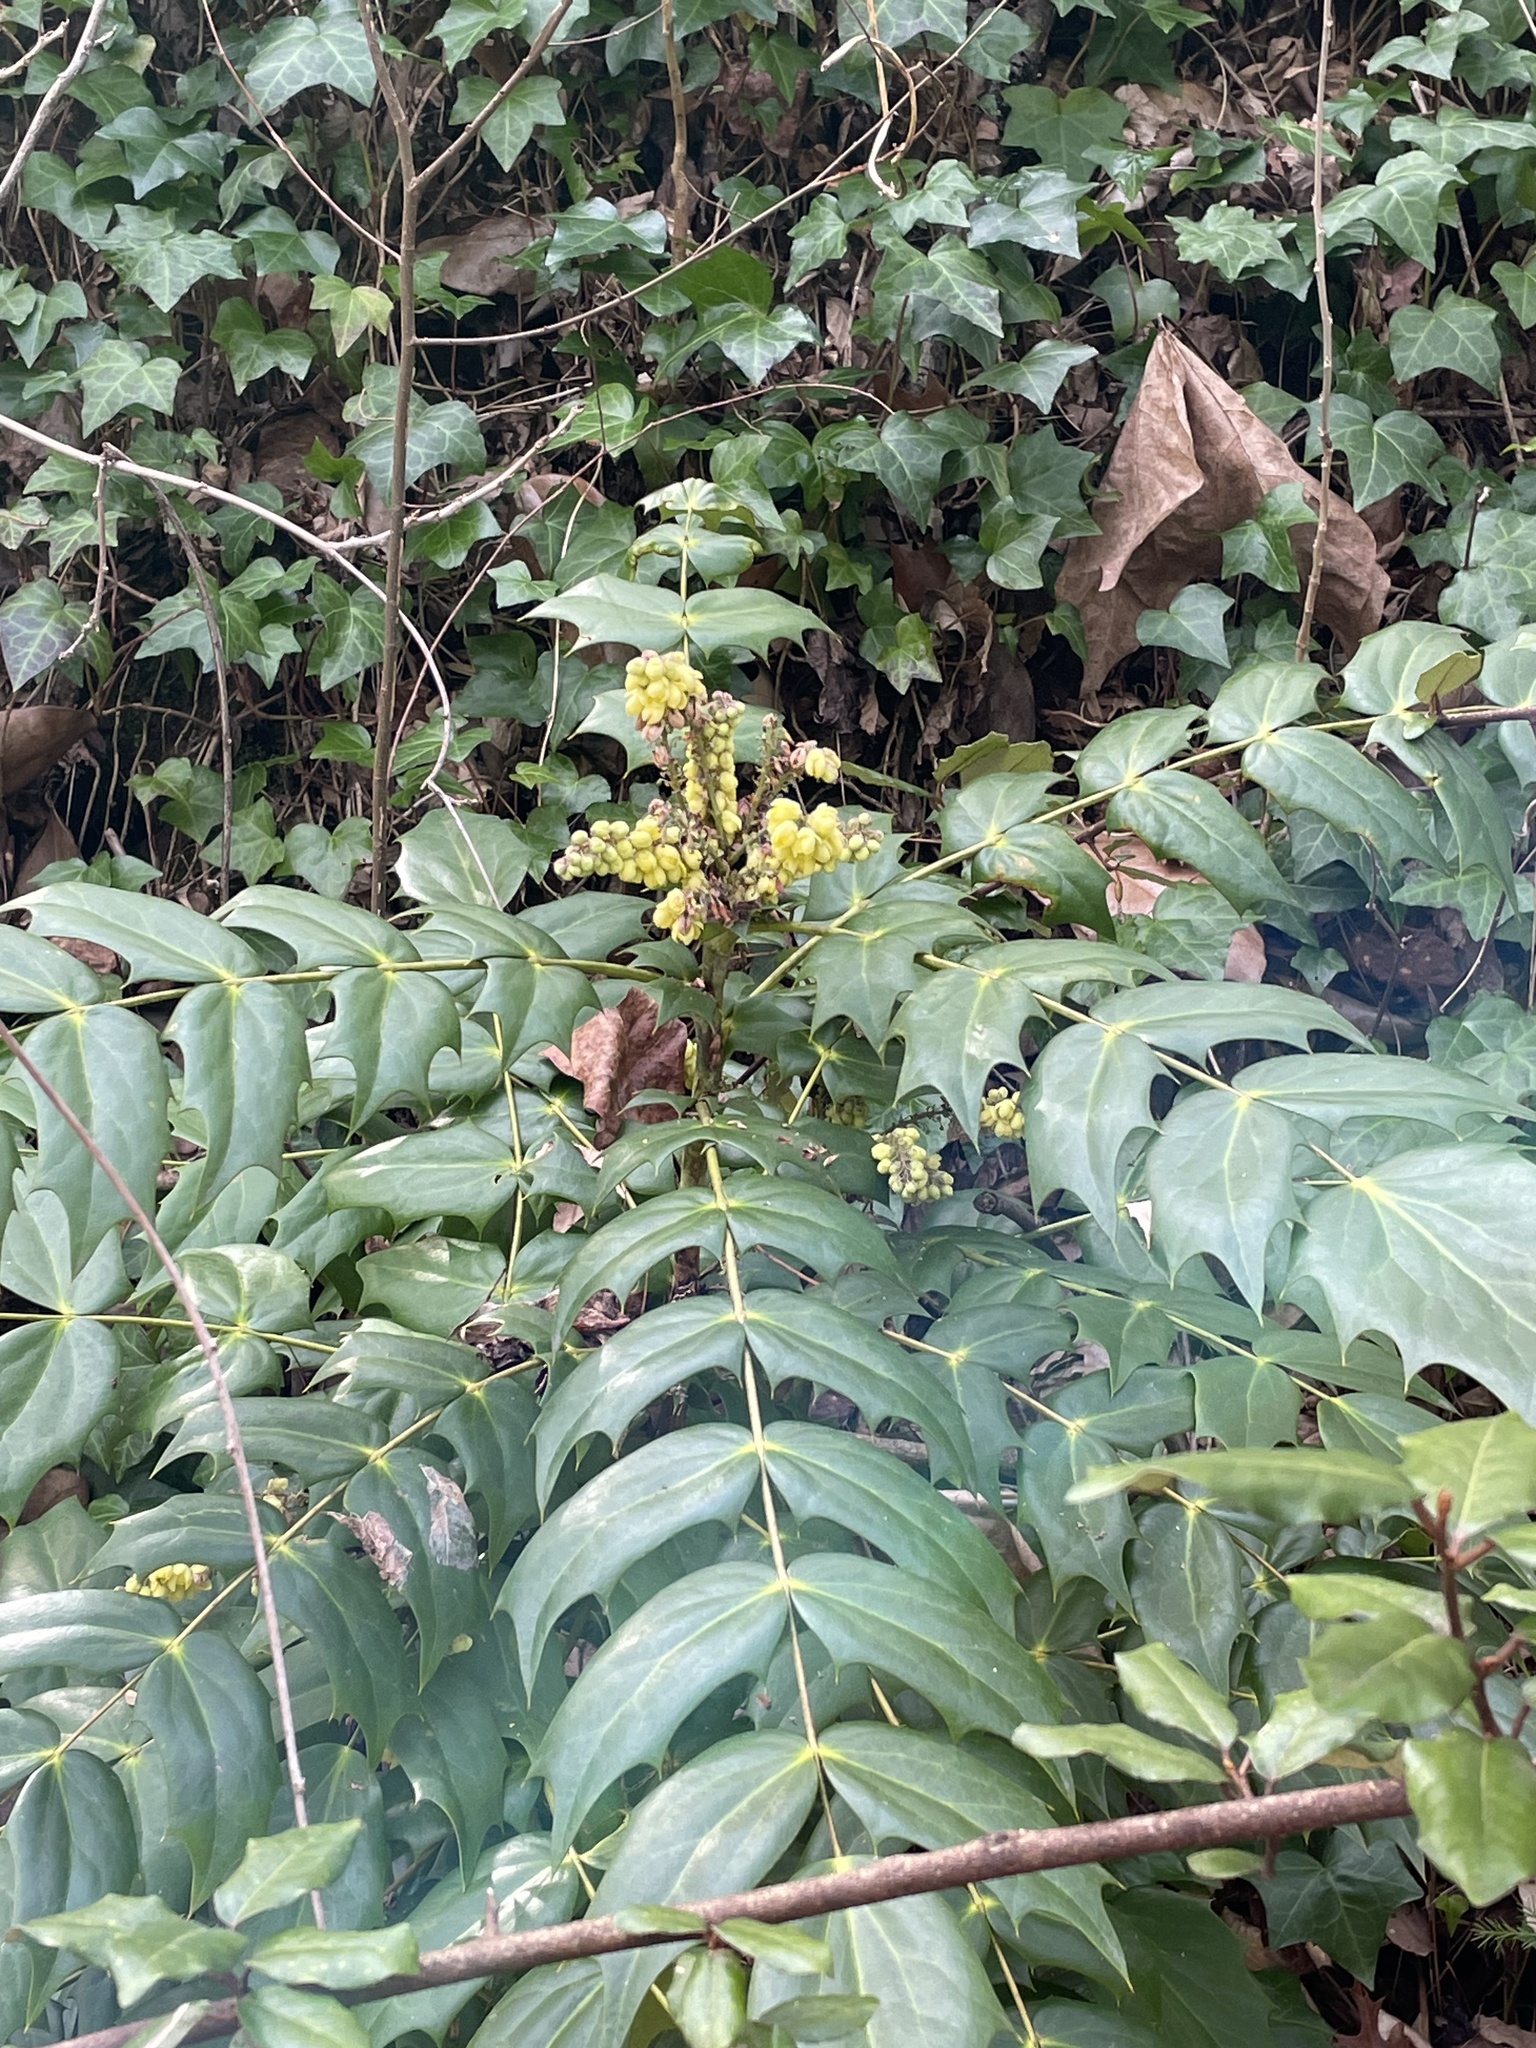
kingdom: Plantae
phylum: Tracheophyta
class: Magnoliopsida
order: Ranunculales
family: Berberidaceae
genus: Mahonia
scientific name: Mahonia bealei
